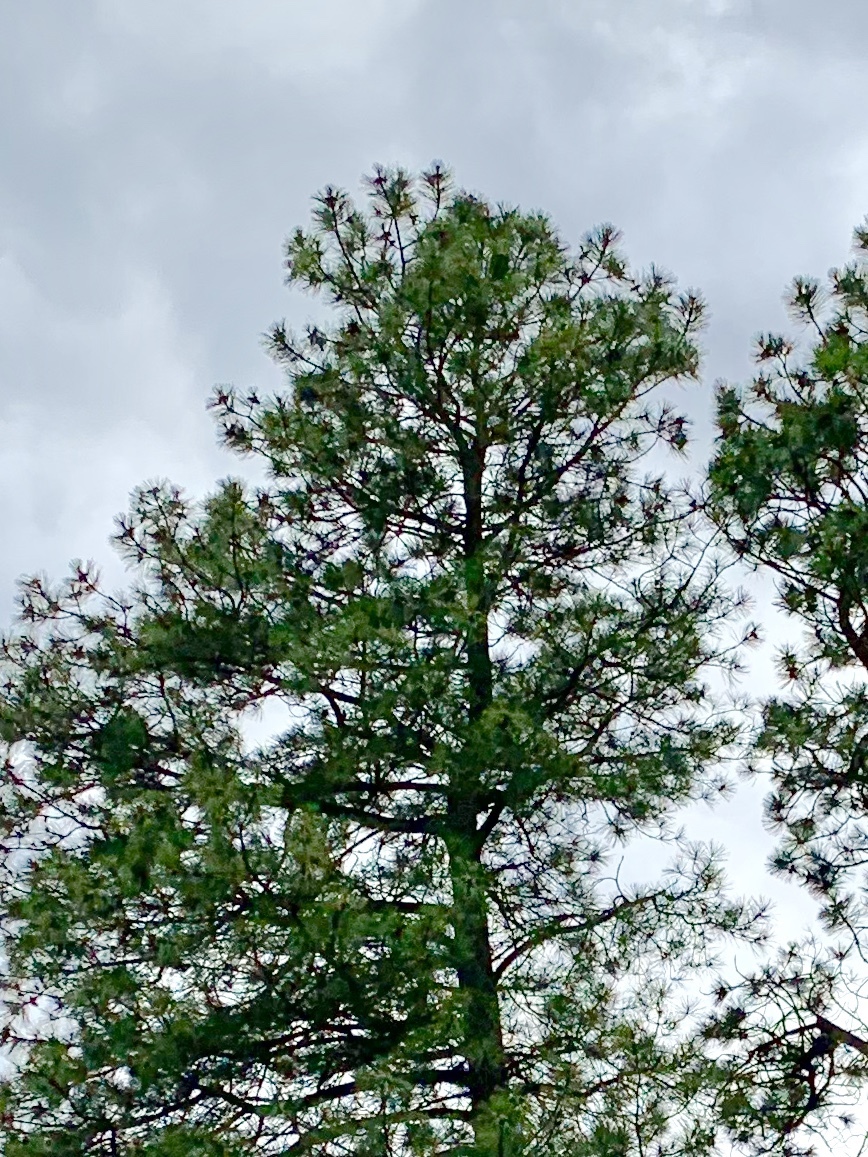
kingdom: Plantae
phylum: Tracheophyta
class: Pinopsida
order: Pinales
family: Pinaceae
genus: Pinus
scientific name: Pinus ponderosa
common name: Western yellow-pine
